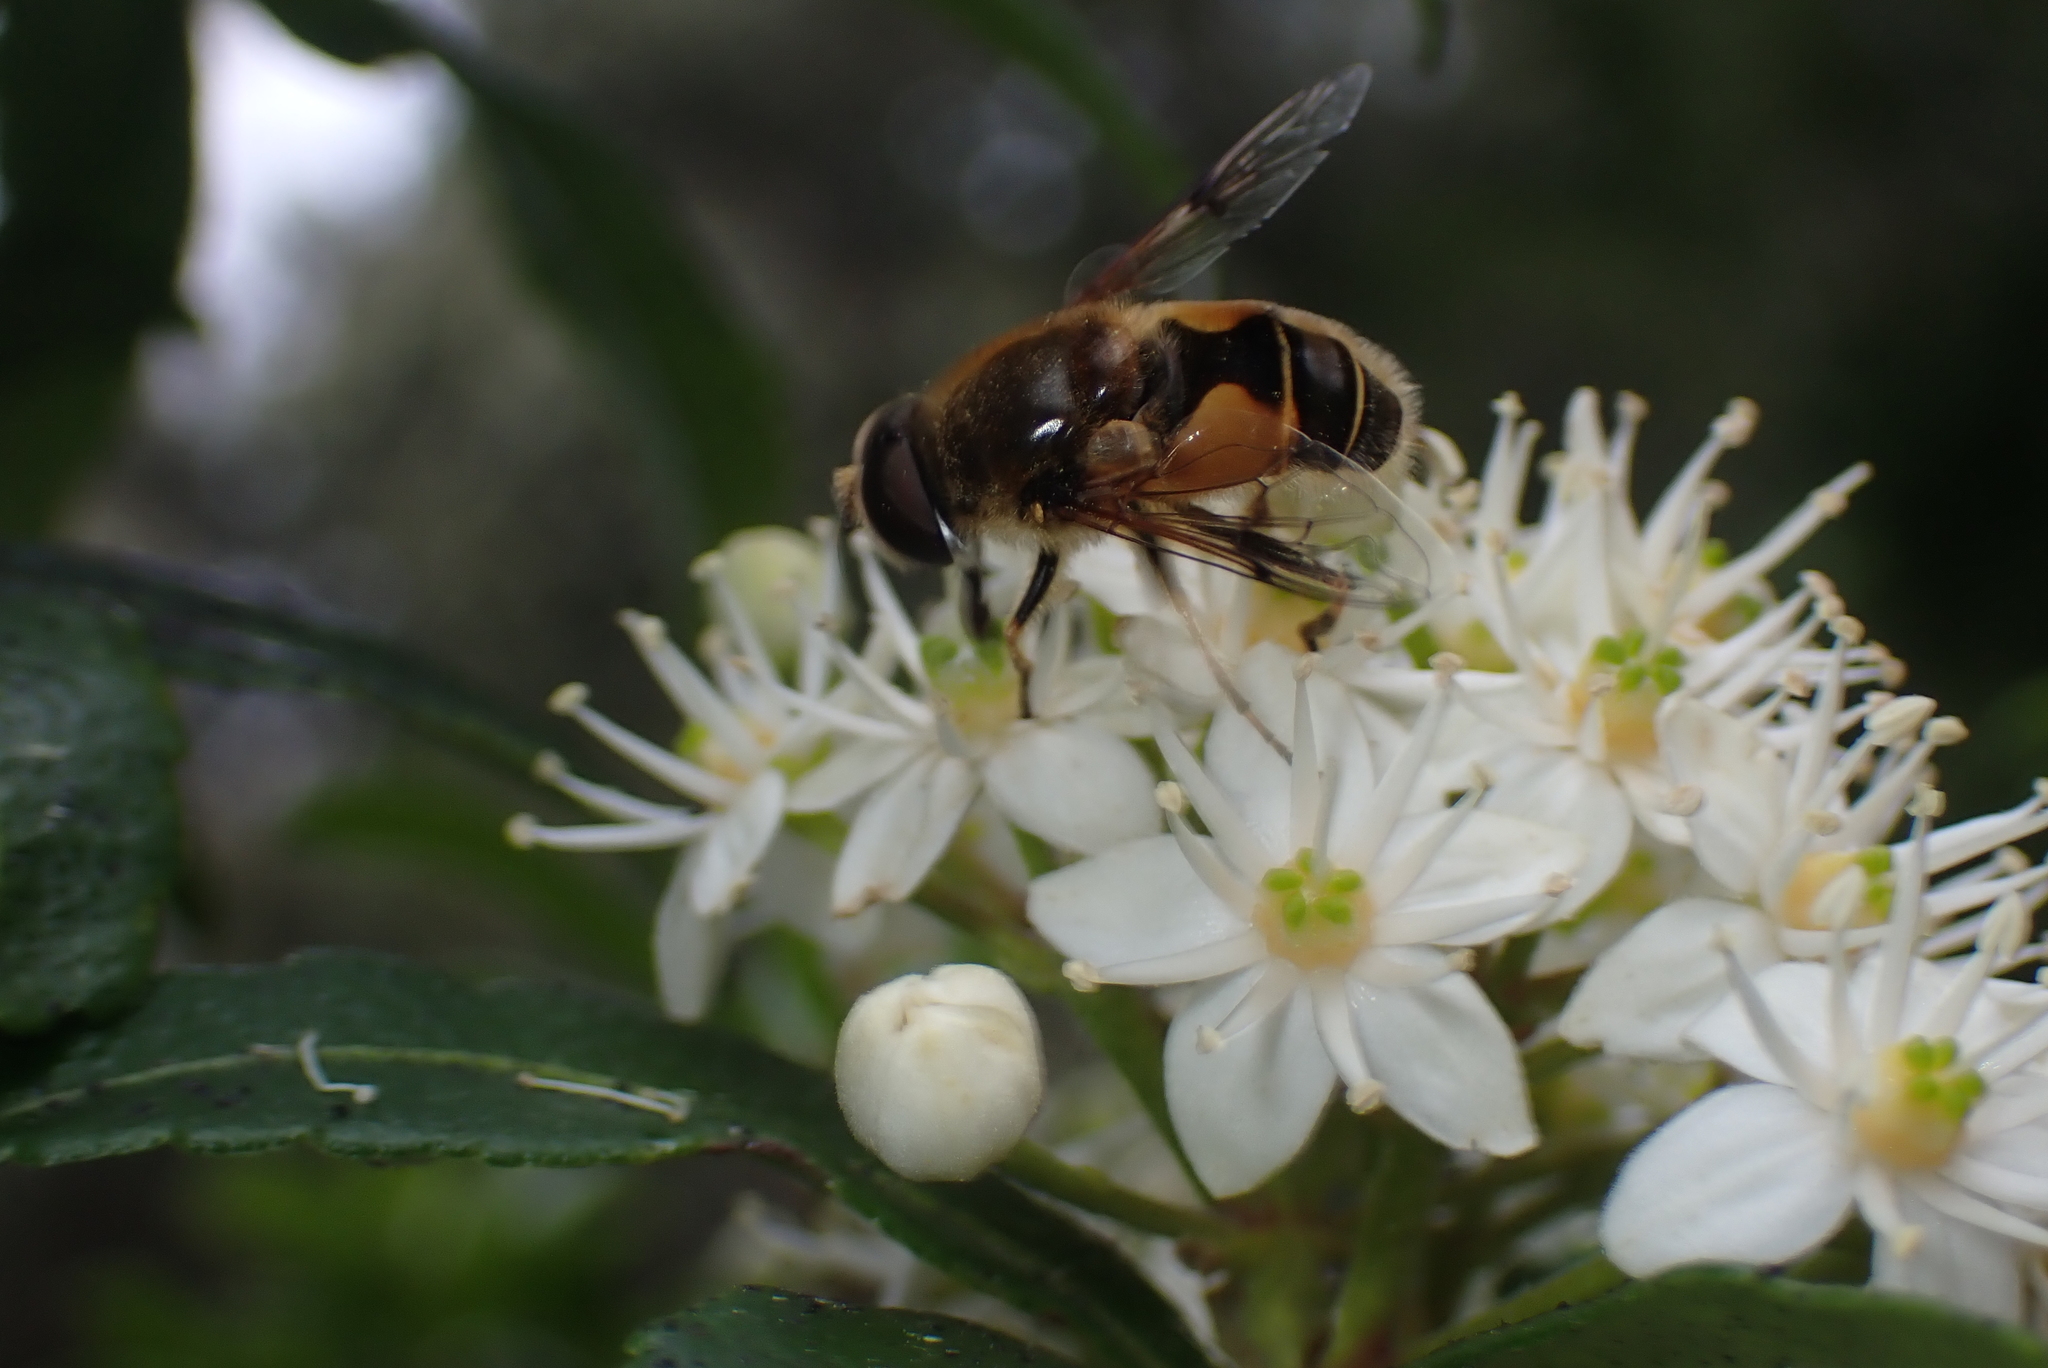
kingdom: Animalia
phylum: Arthropoda
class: Insecta
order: Diptera
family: Syrphidae
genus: Cheilosia
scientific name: Cheilosia morio
